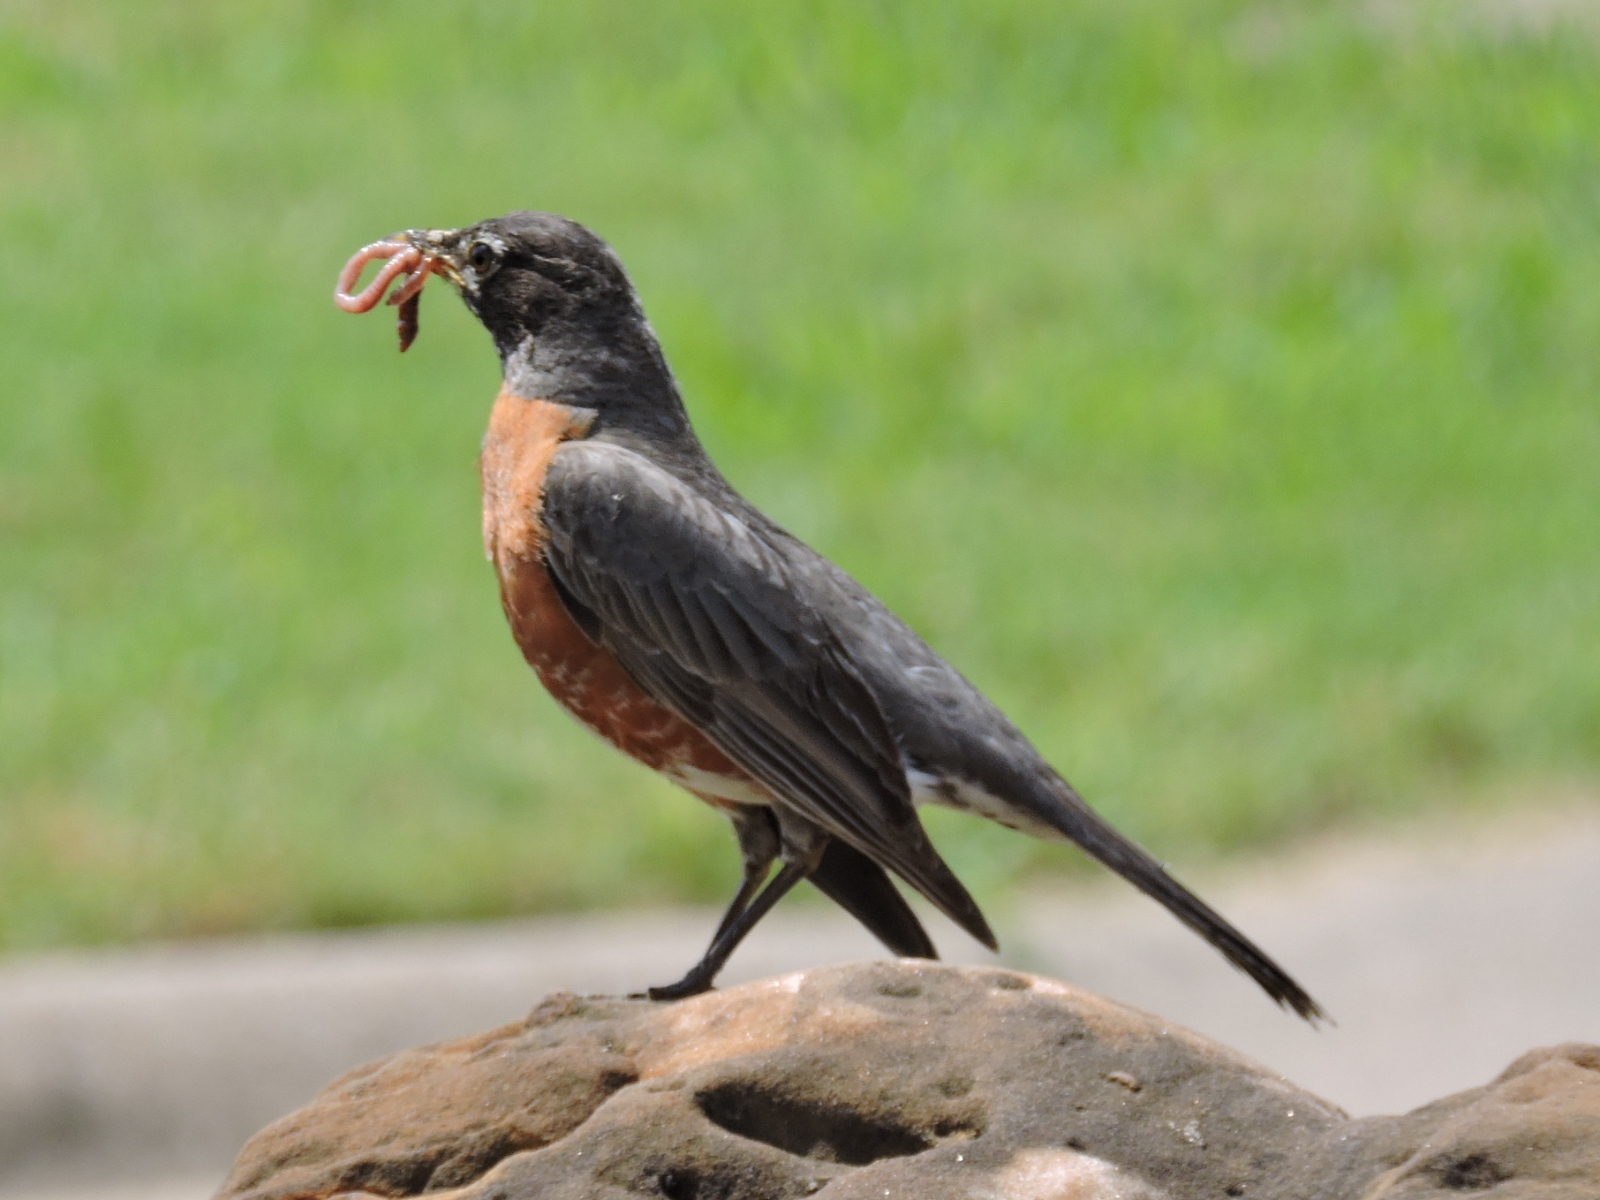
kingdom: Animalia
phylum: Chordata
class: Aves
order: Passeriformes
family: Turdidae
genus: Turdus
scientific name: Turdus migratorius
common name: American robin
